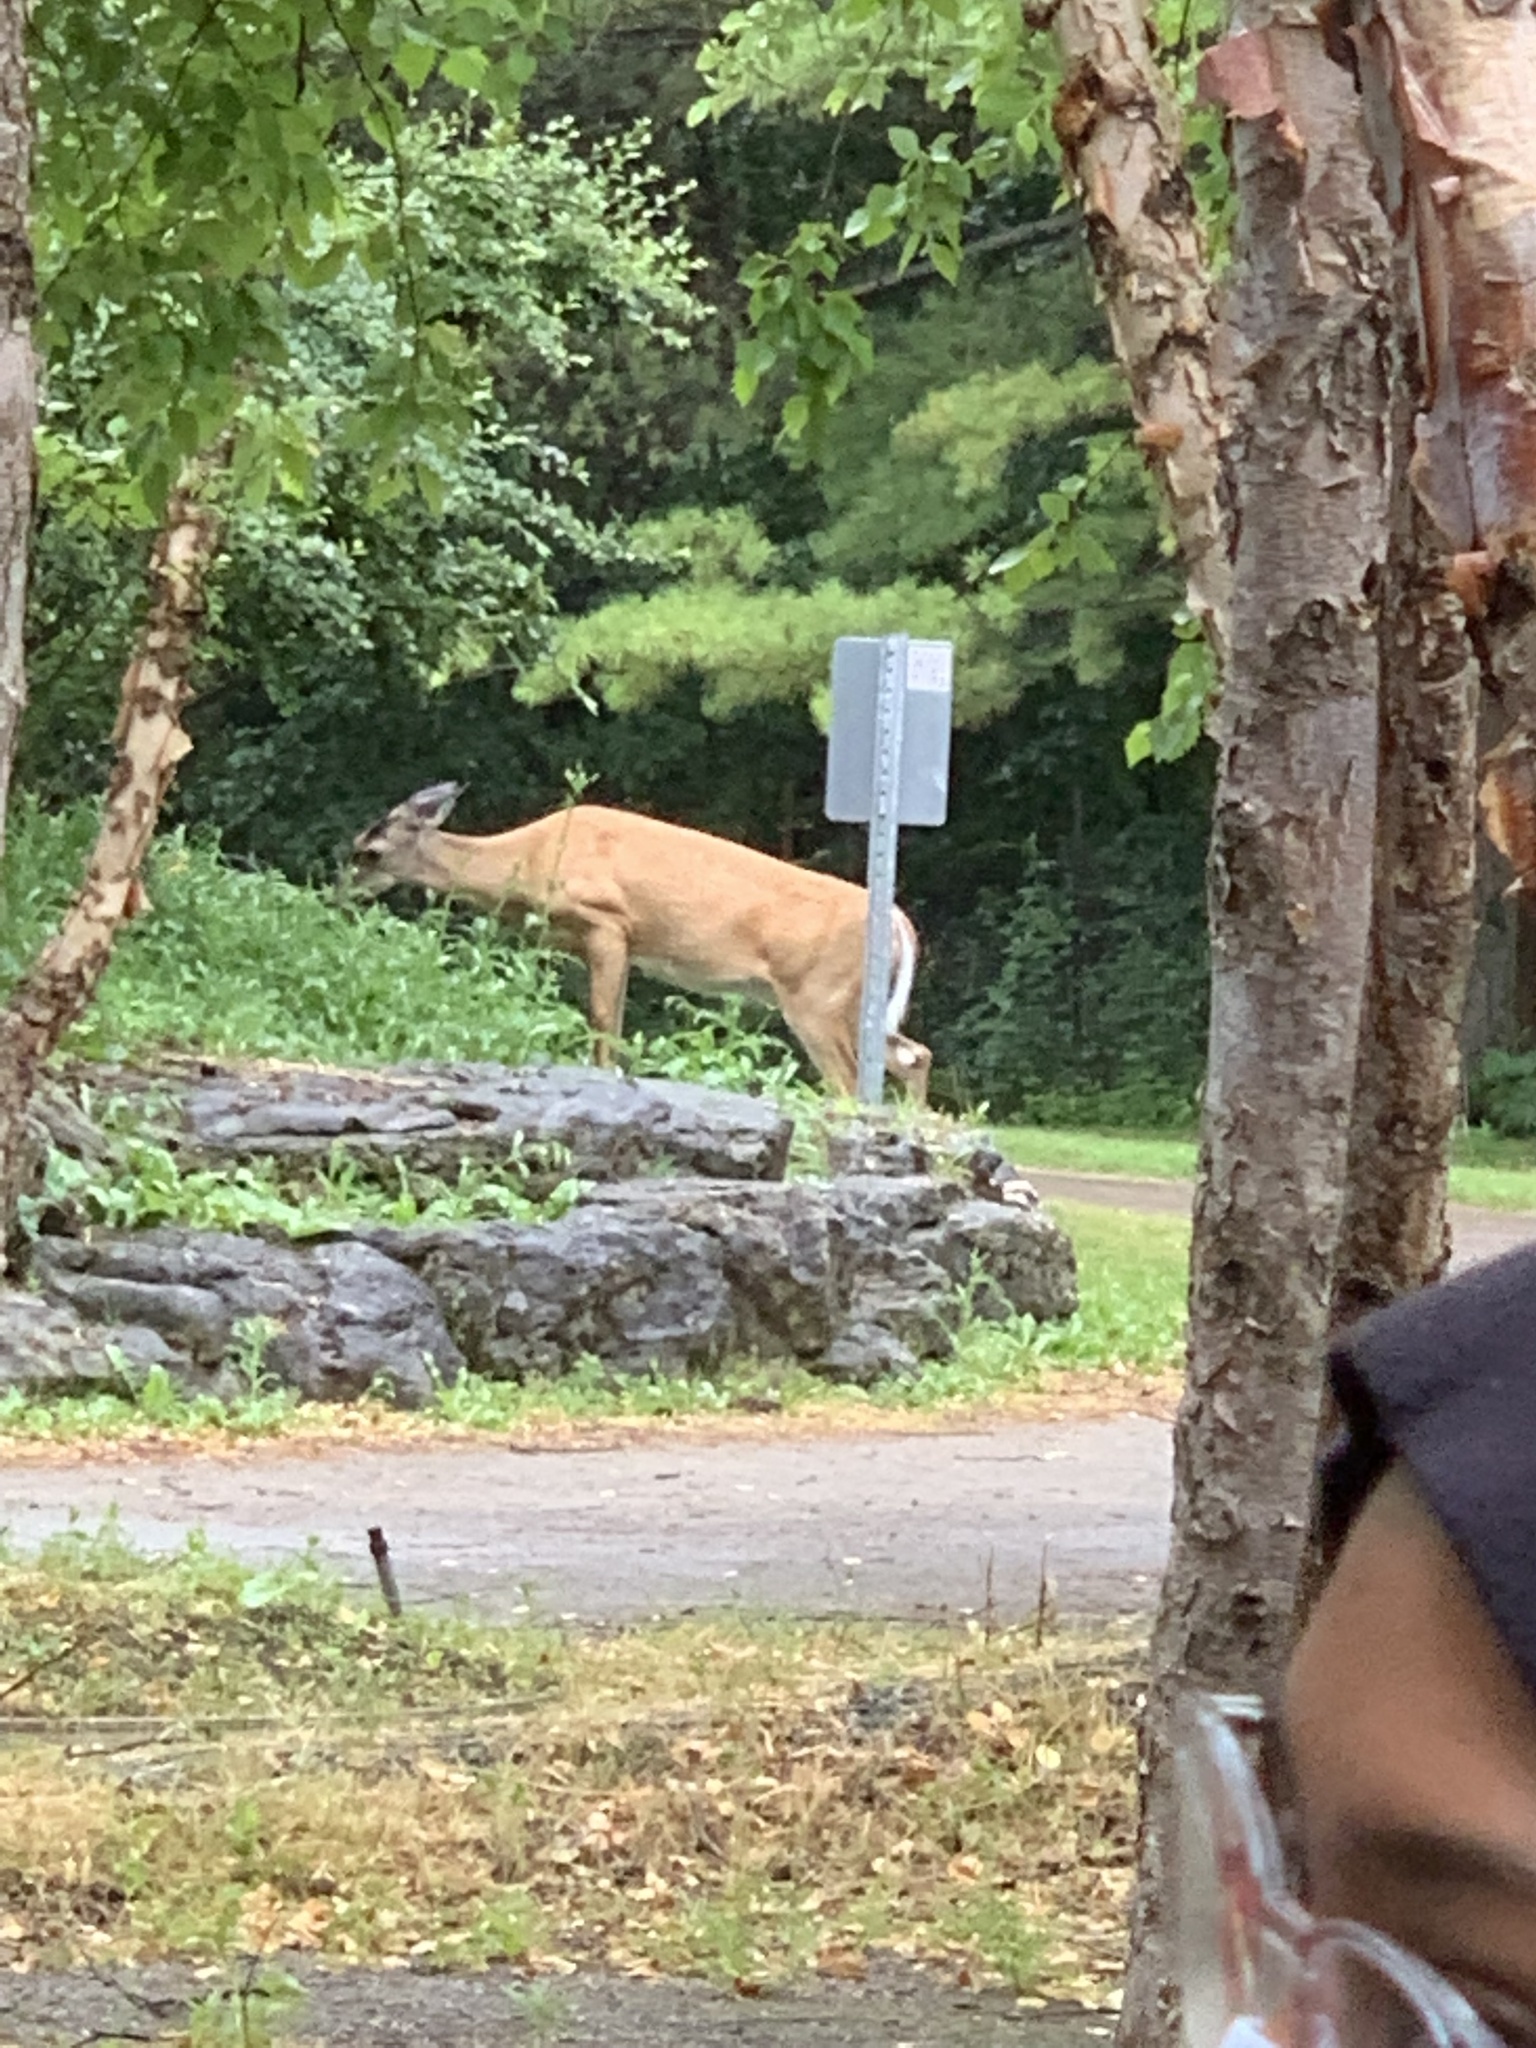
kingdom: Animalia
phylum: Chordata
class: Mammalia
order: Artiodactyla
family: Cervidae
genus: Odocoileus
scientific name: Odocoileus virginianus
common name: White-tailed deer
